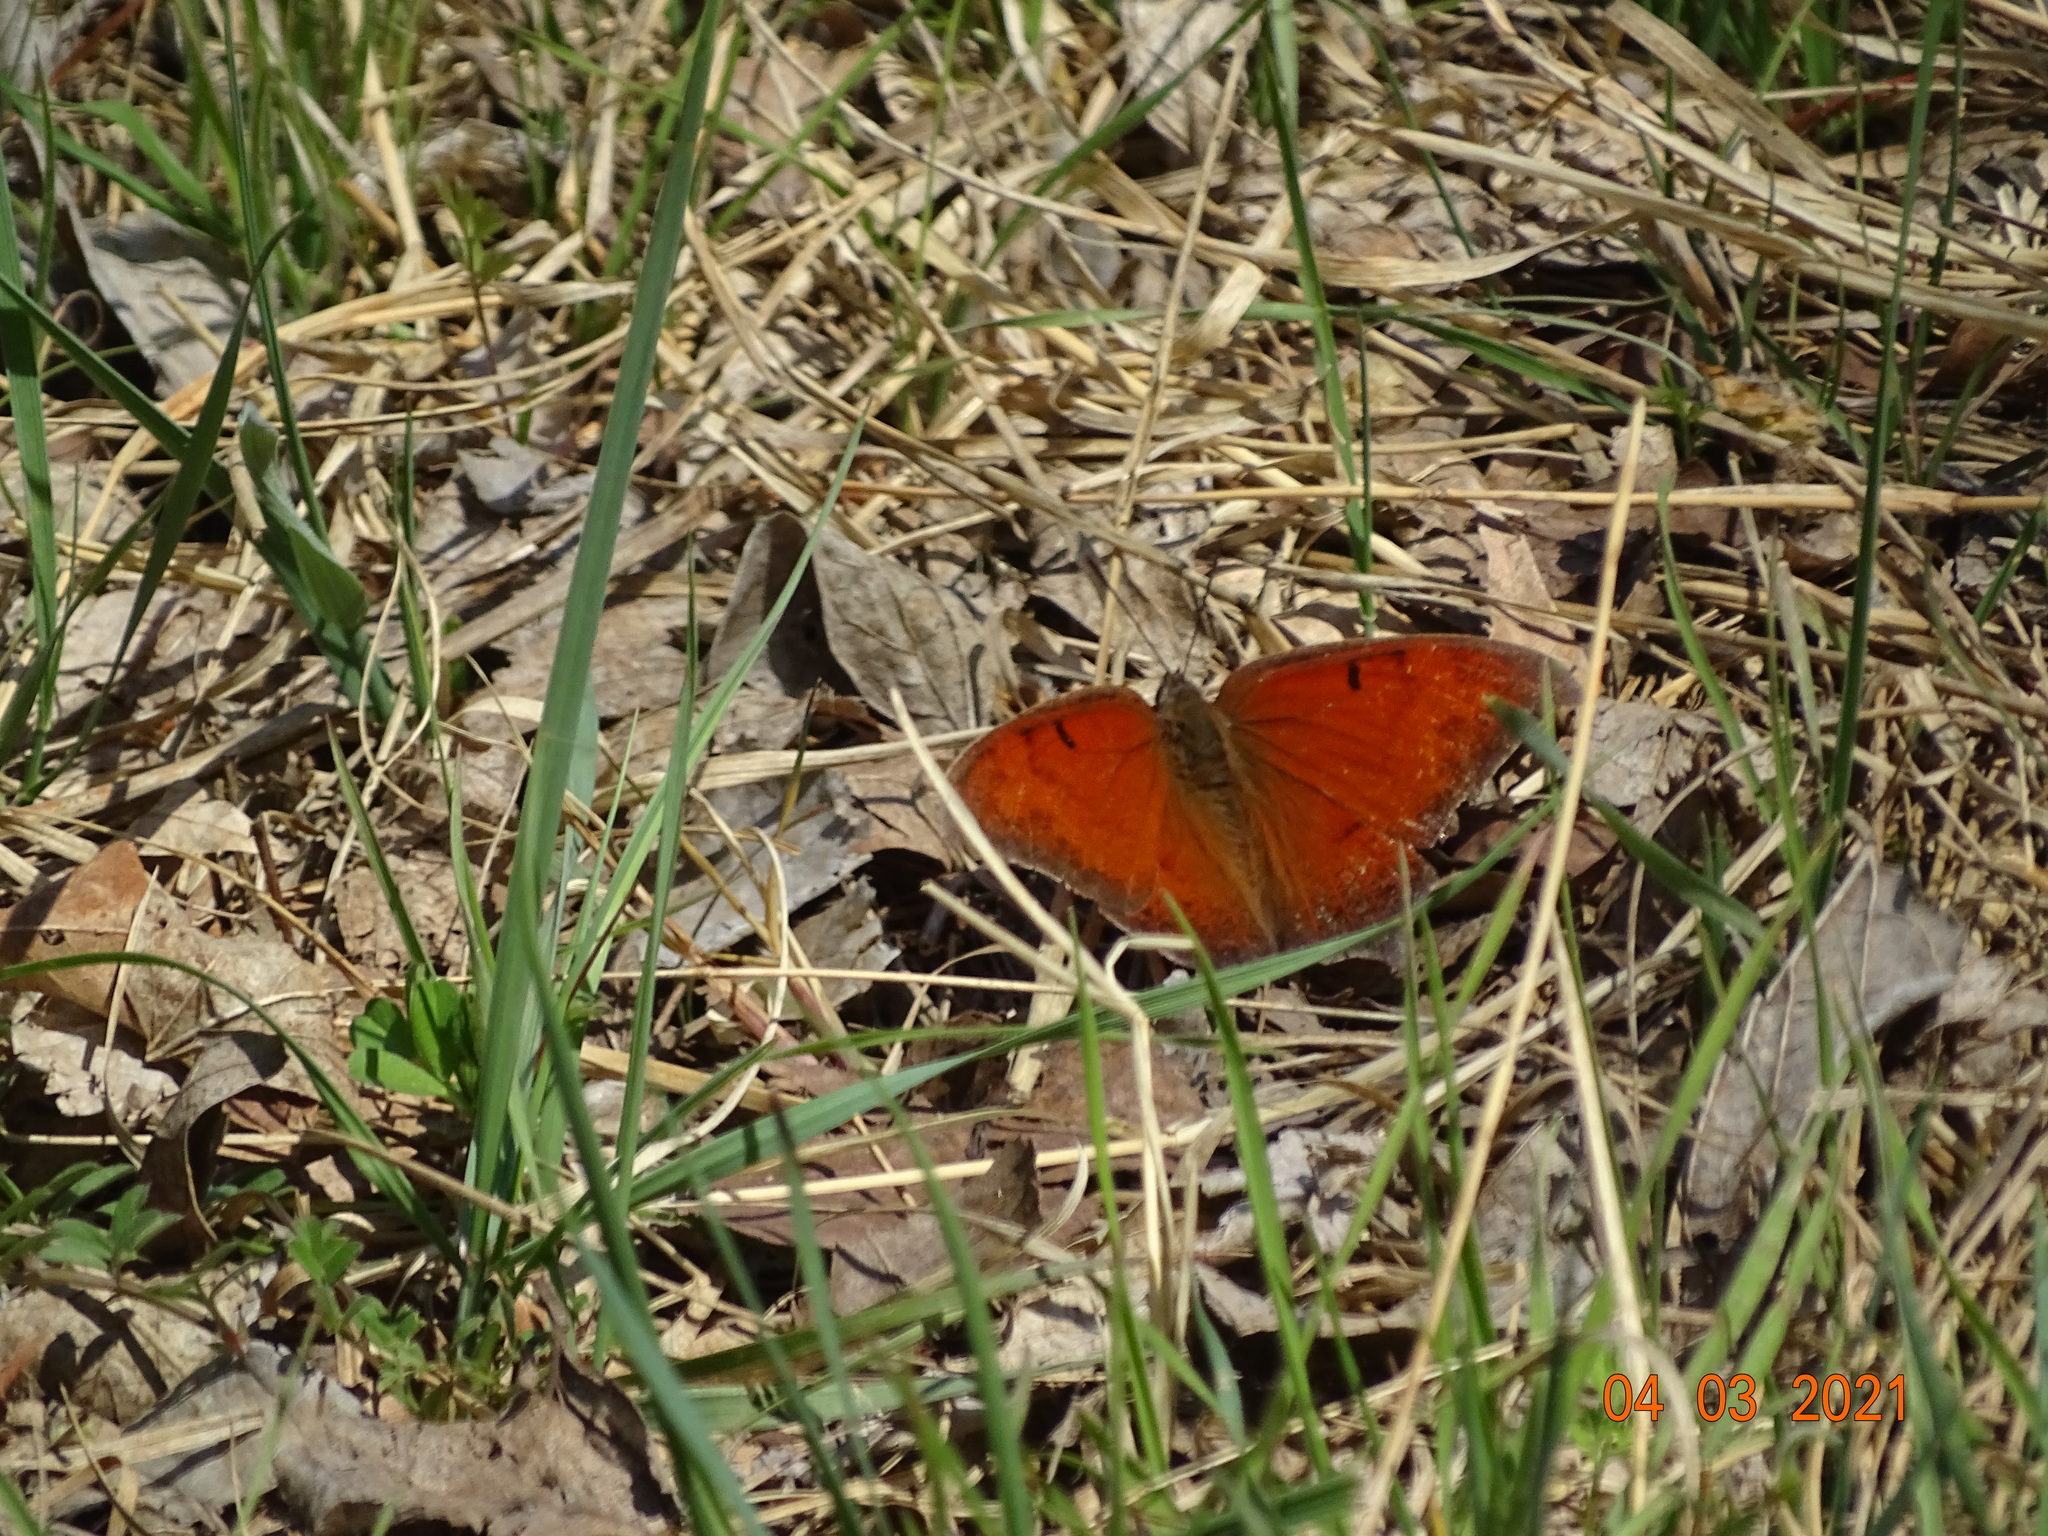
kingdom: Animalia
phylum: Arthropoda
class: Insecta
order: Lepidoptera
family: Nymphalidae
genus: Anaea
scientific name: Anaea andria
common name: Goatweed leafwing
